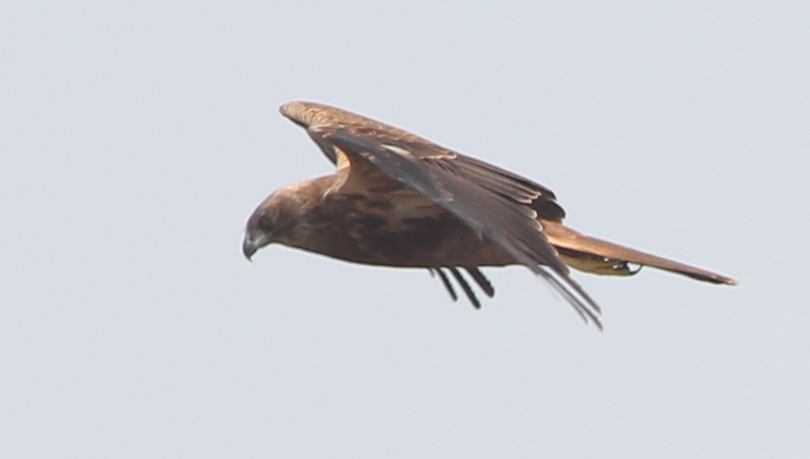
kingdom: Animalia
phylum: Chordata
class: Aves
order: Accipitriformes
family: Accipitridae
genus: Circus
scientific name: Circus aeruginosus
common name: Western marsh harrier
